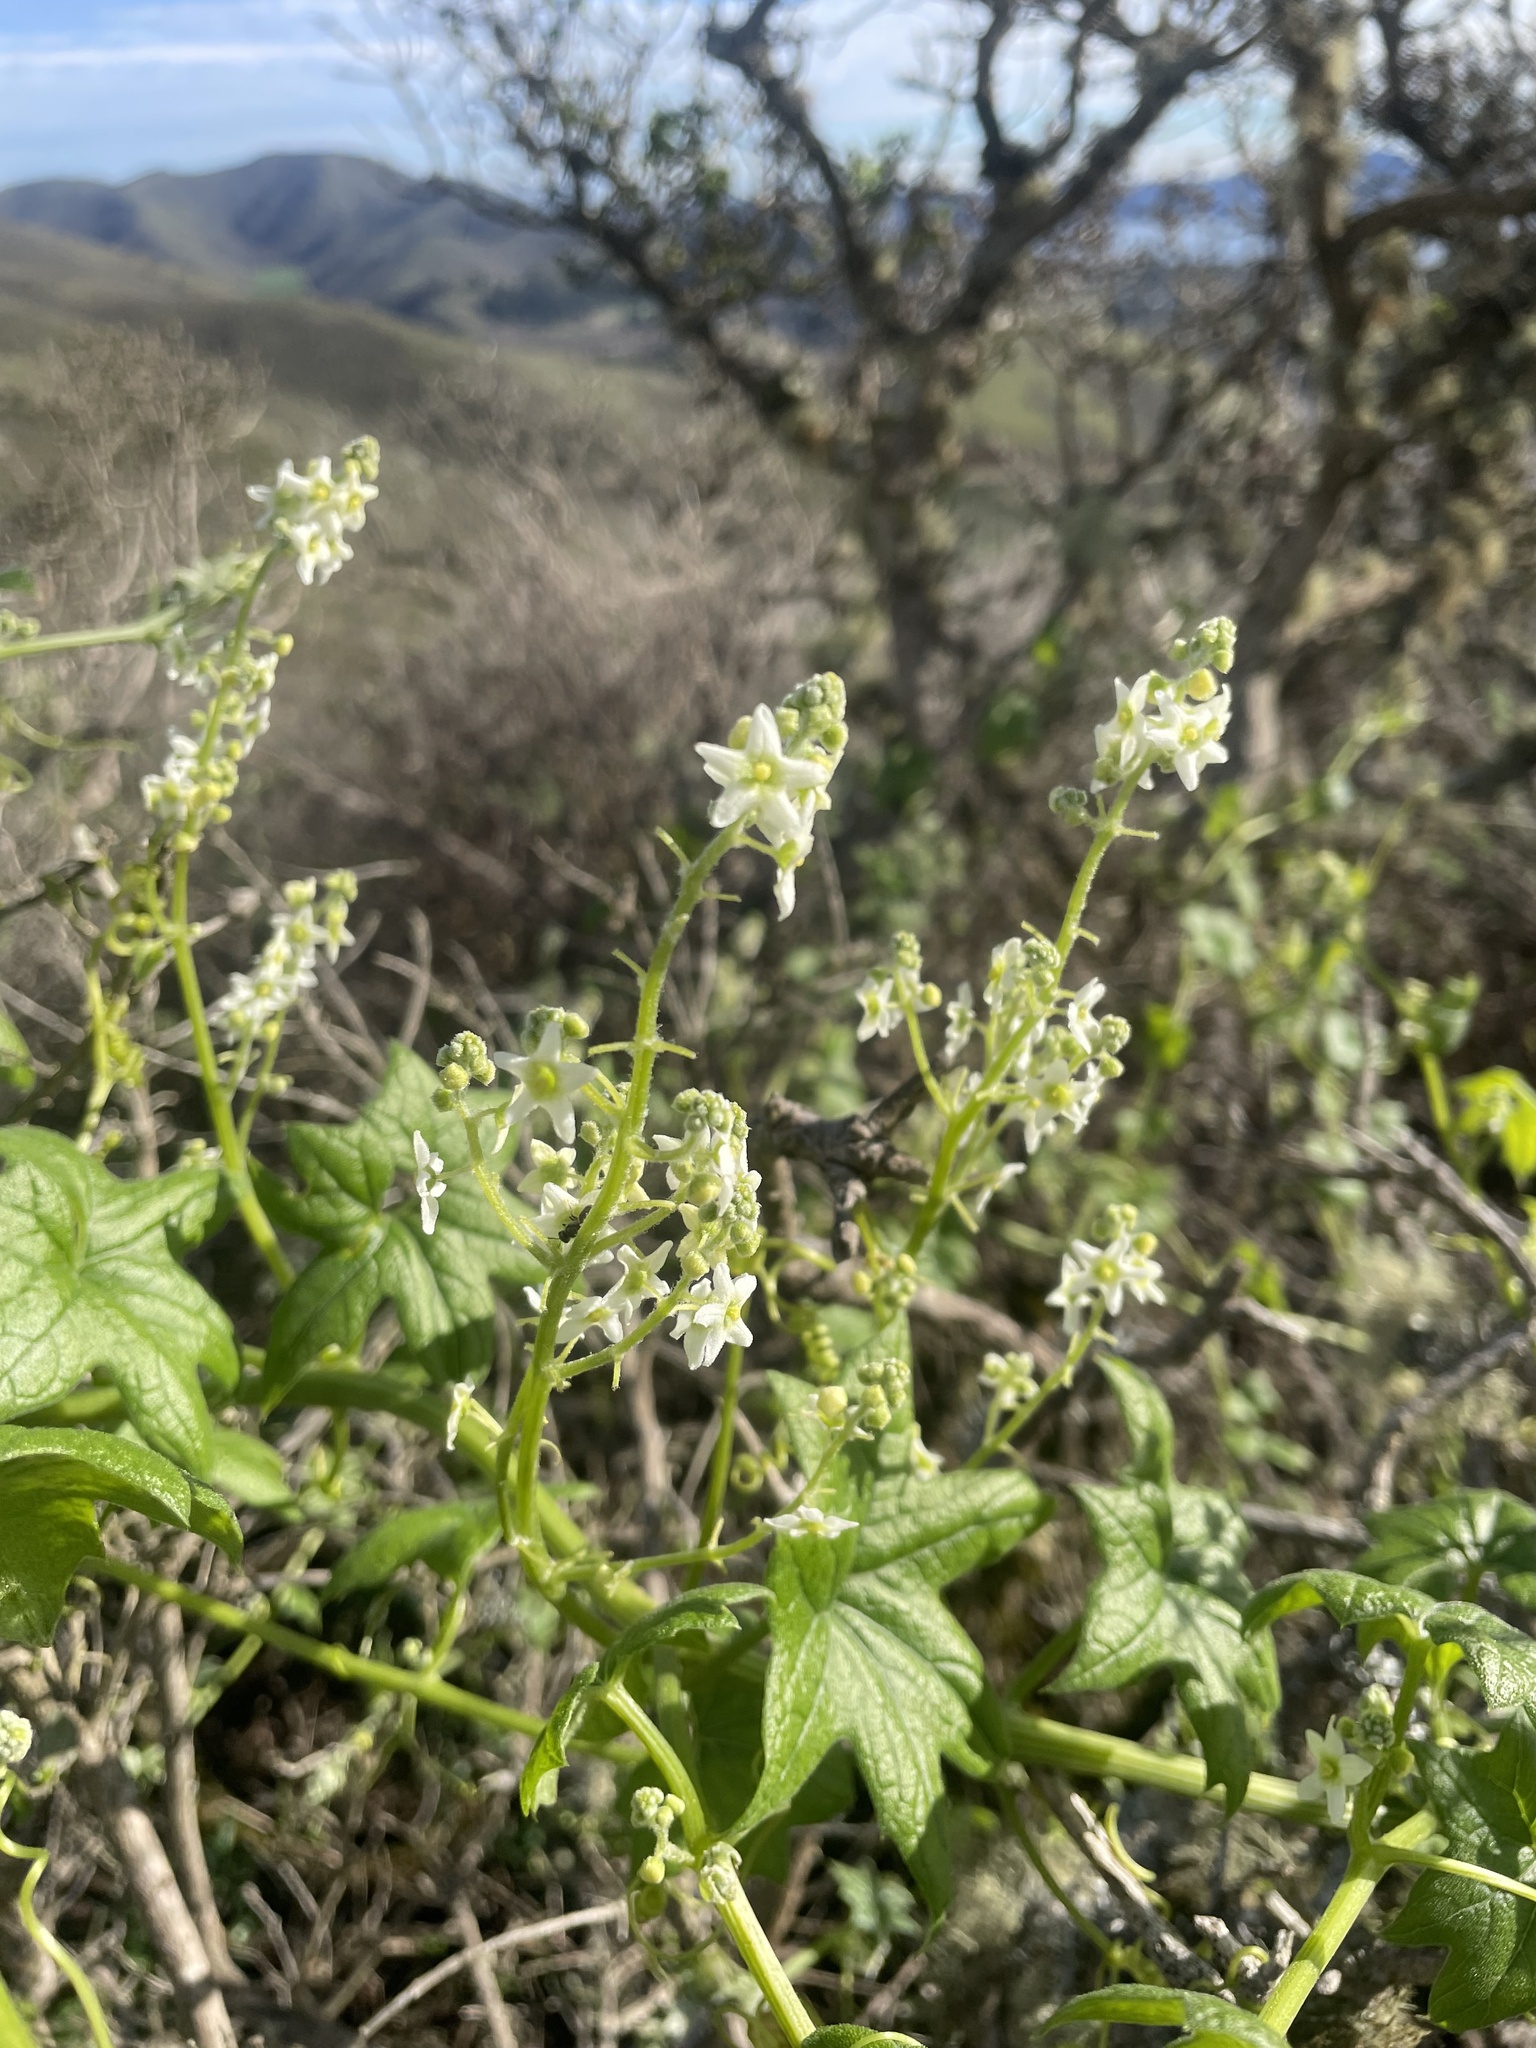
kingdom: Plantae
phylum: Tracheophyta
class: Magnoliopsida
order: Cucurbitales
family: Cucurbitaceae
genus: Marah
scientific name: Marah fabacea
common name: California manroot
